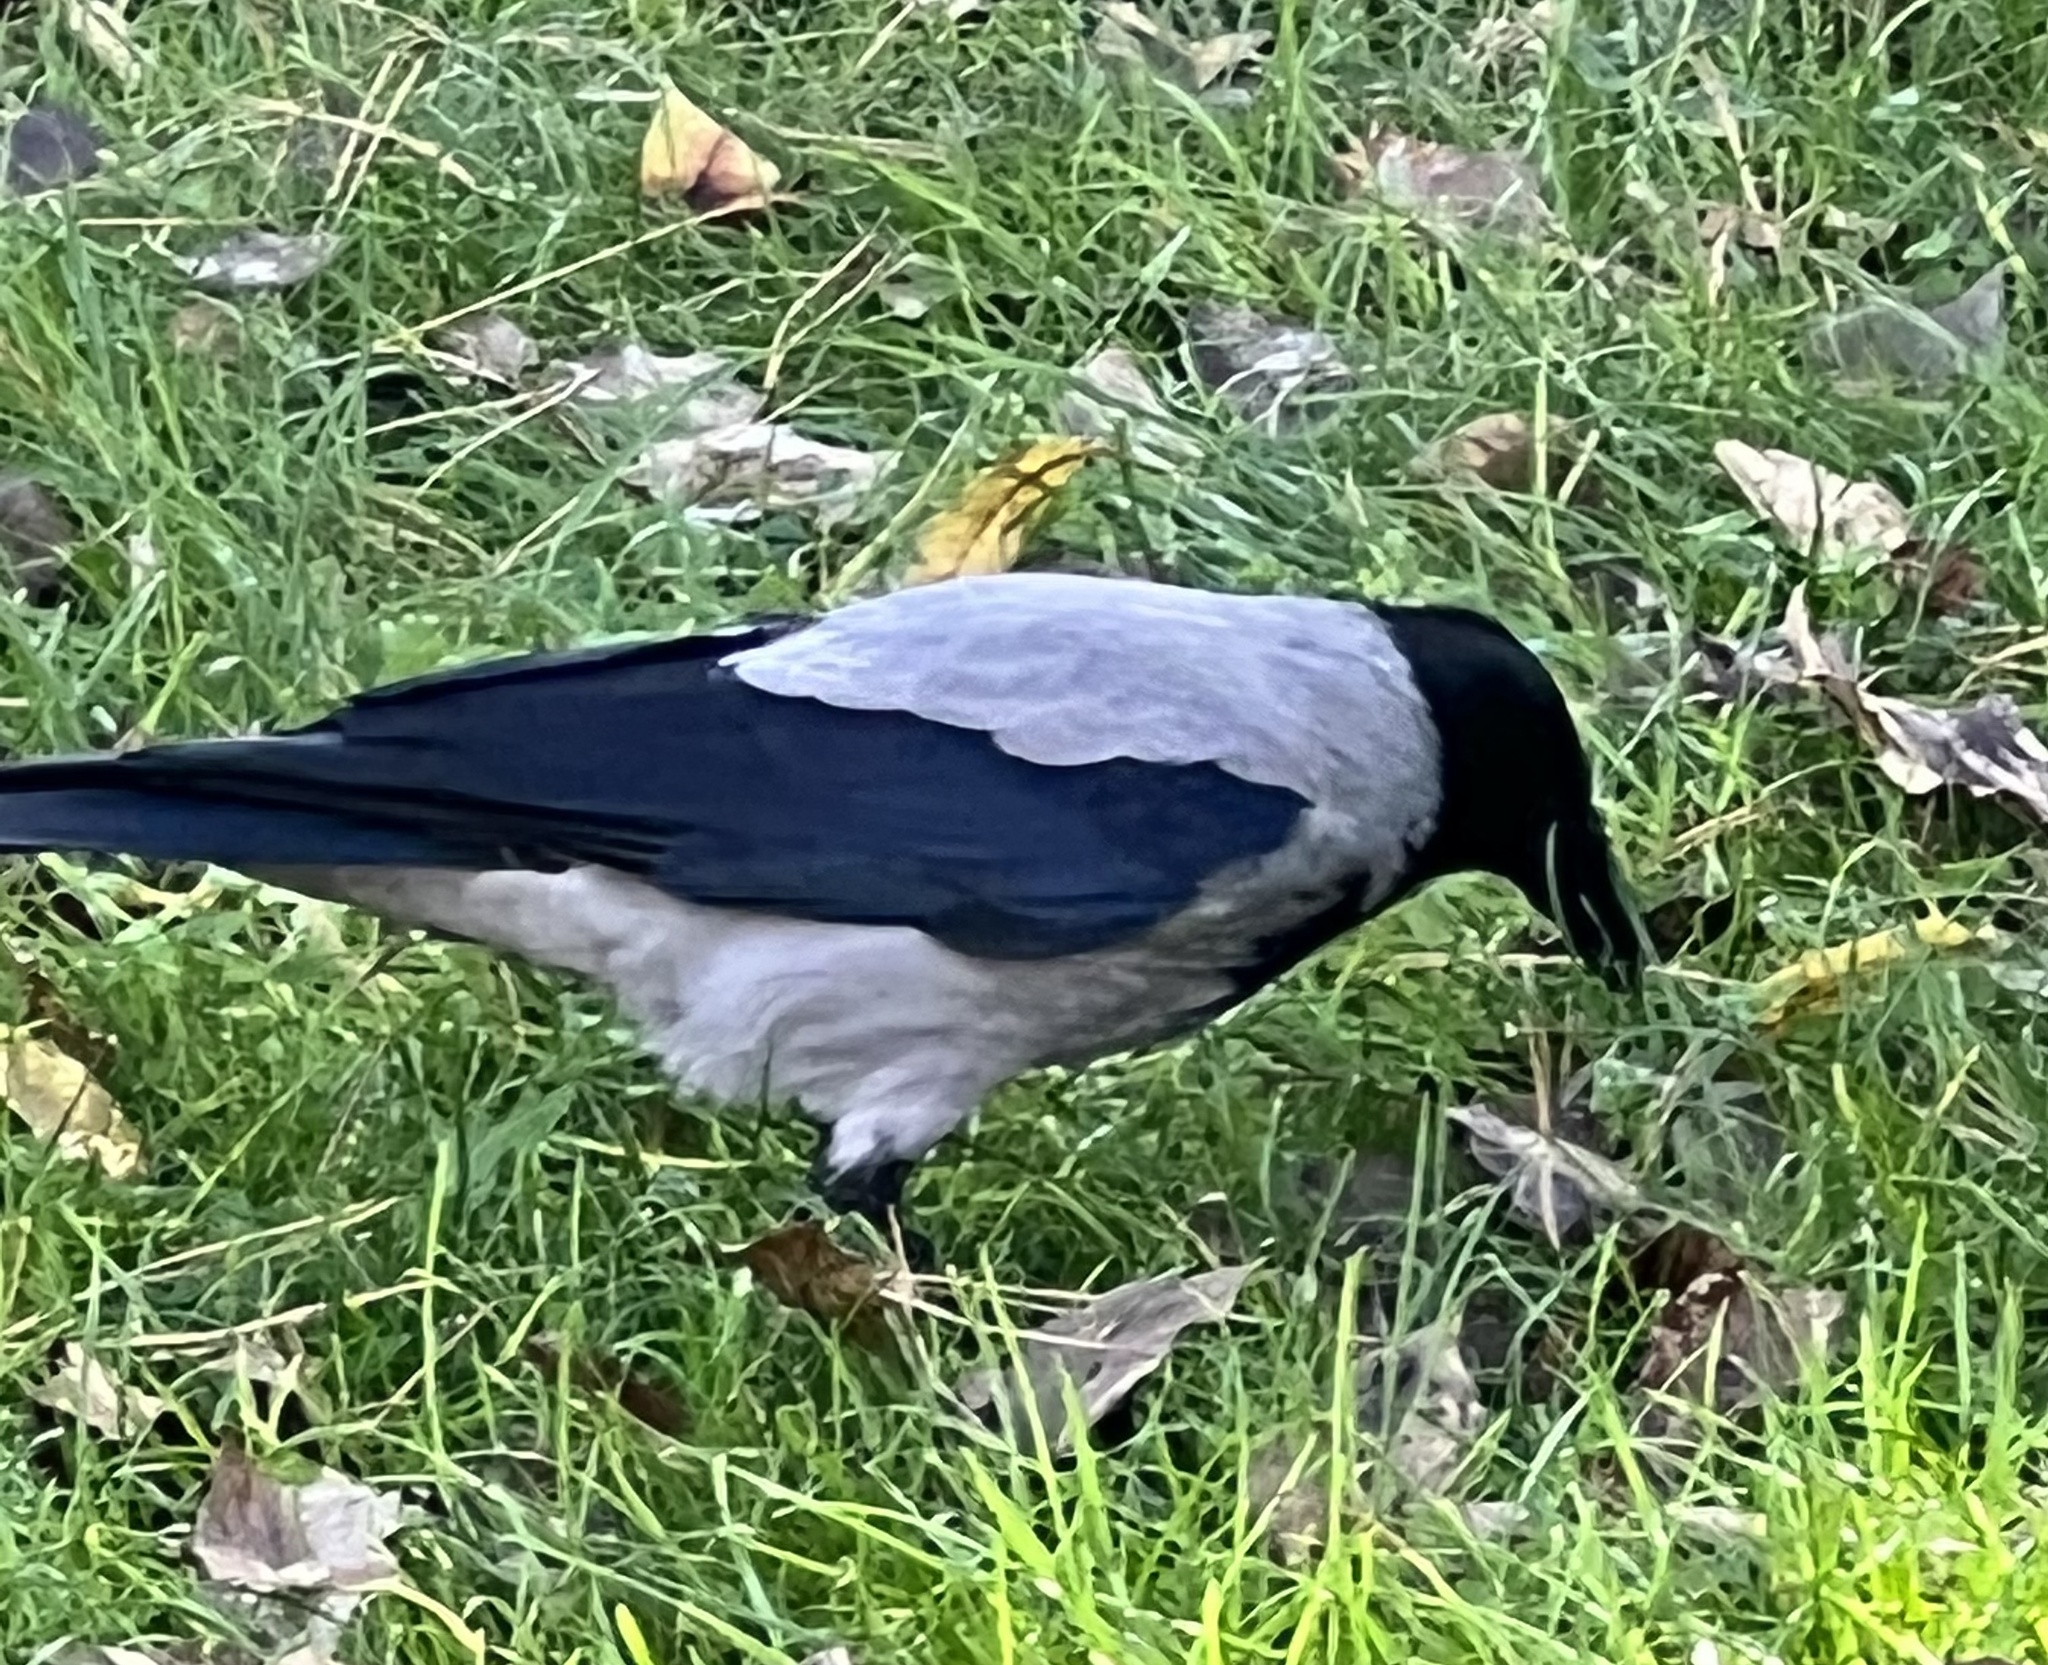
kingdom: Animalia
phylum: Chordata
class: Aves
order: Passeriformes
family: Corvidae
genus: Corvus
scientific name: Corvus cornix
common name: Hooded crow
